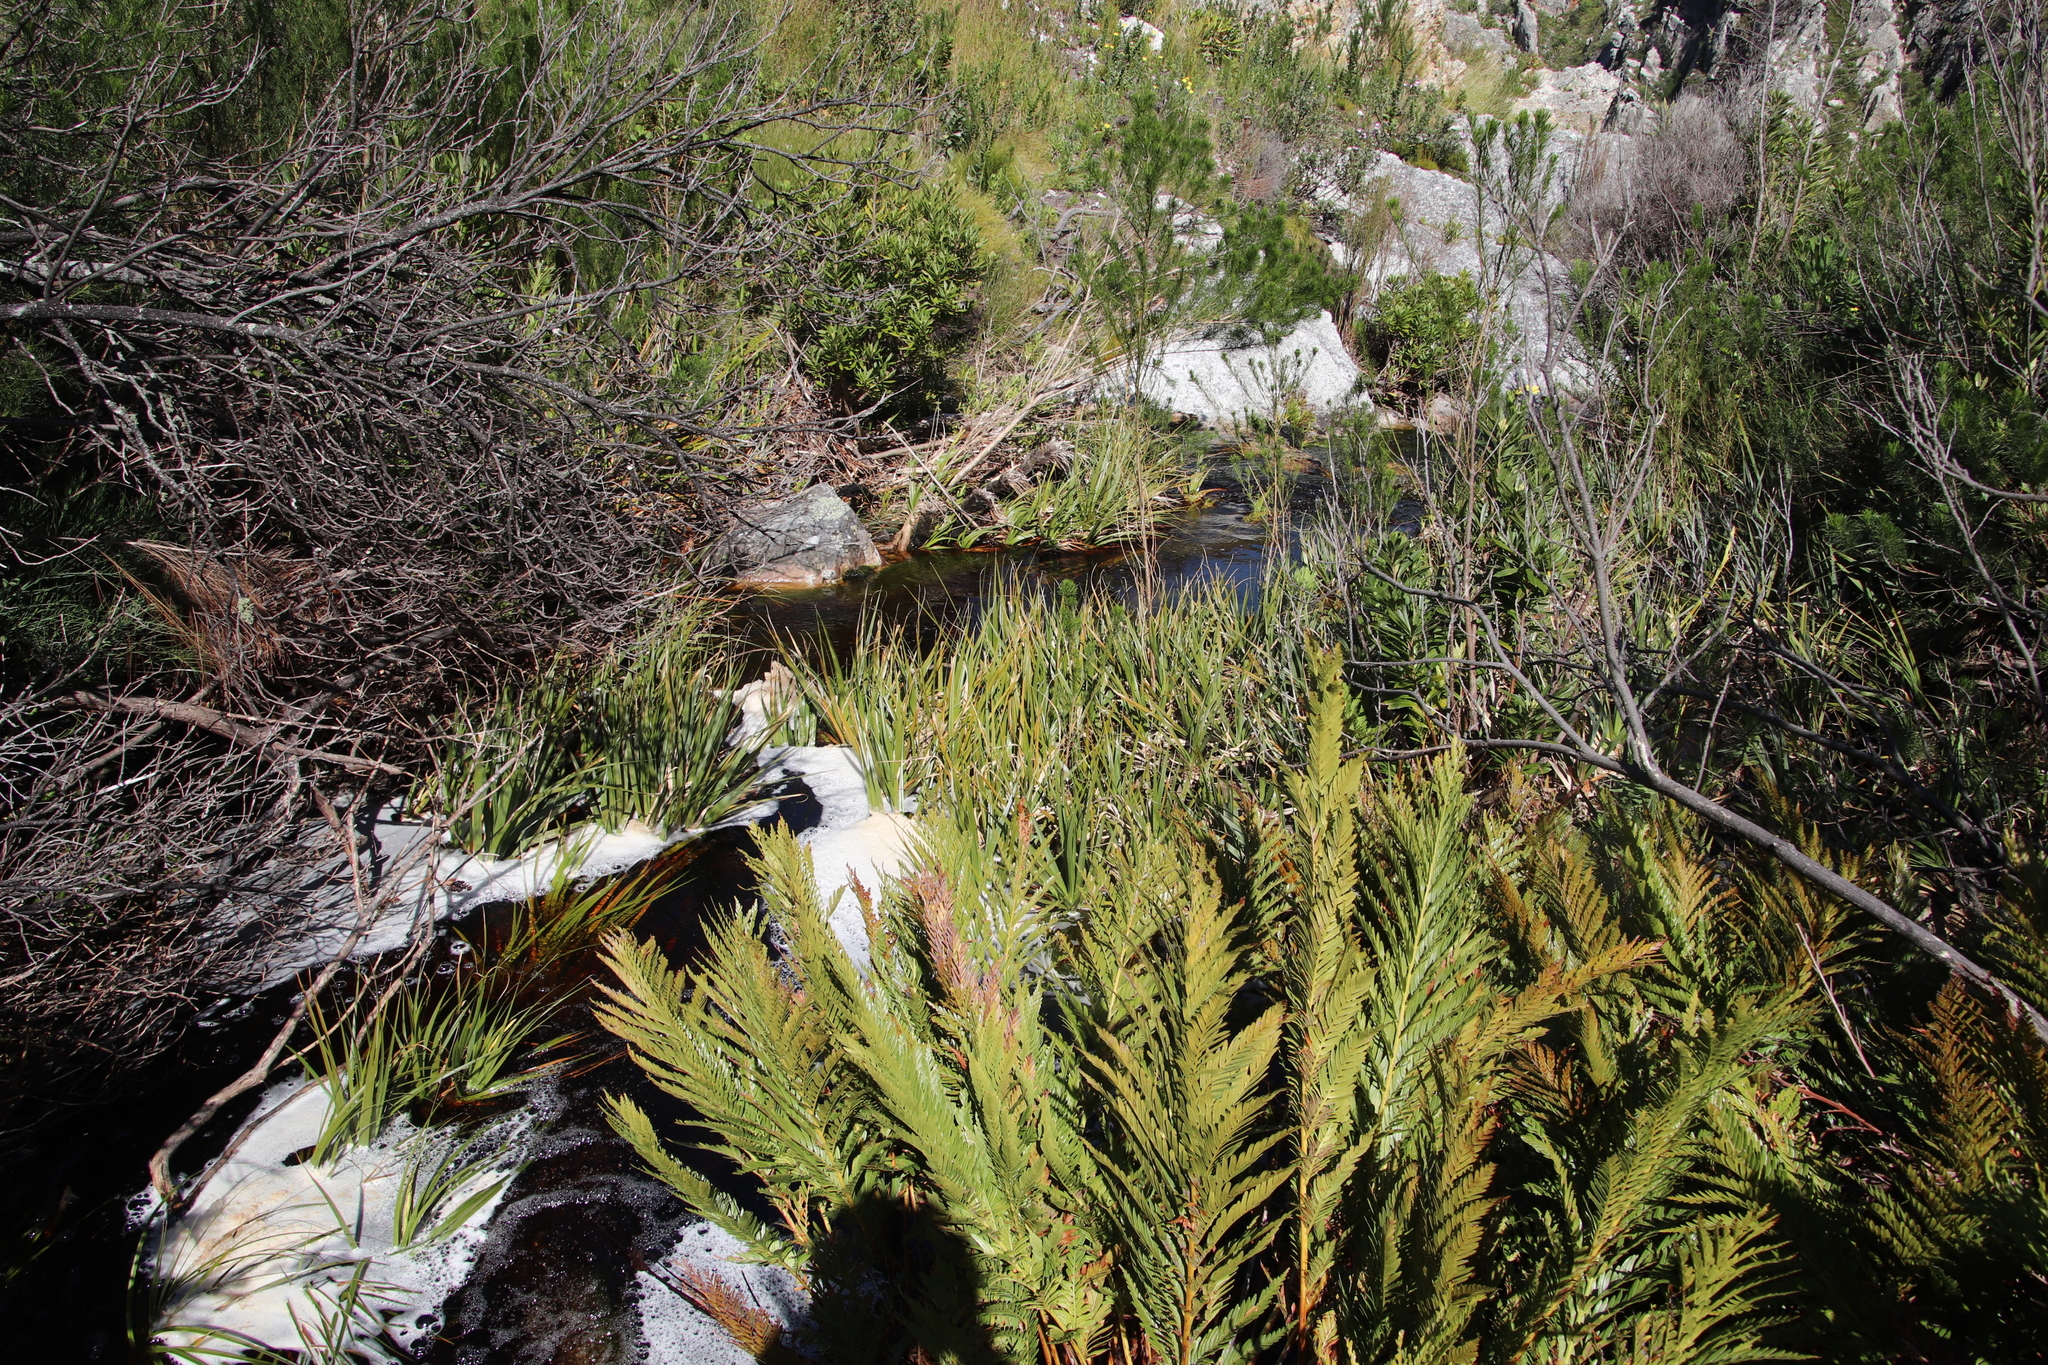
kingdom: Plantae
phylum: Tracheophyta
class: Liliopsida
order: Poales
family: Thurniaceae
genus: Prionium
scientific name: Prionium serratum
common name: Palmiet
